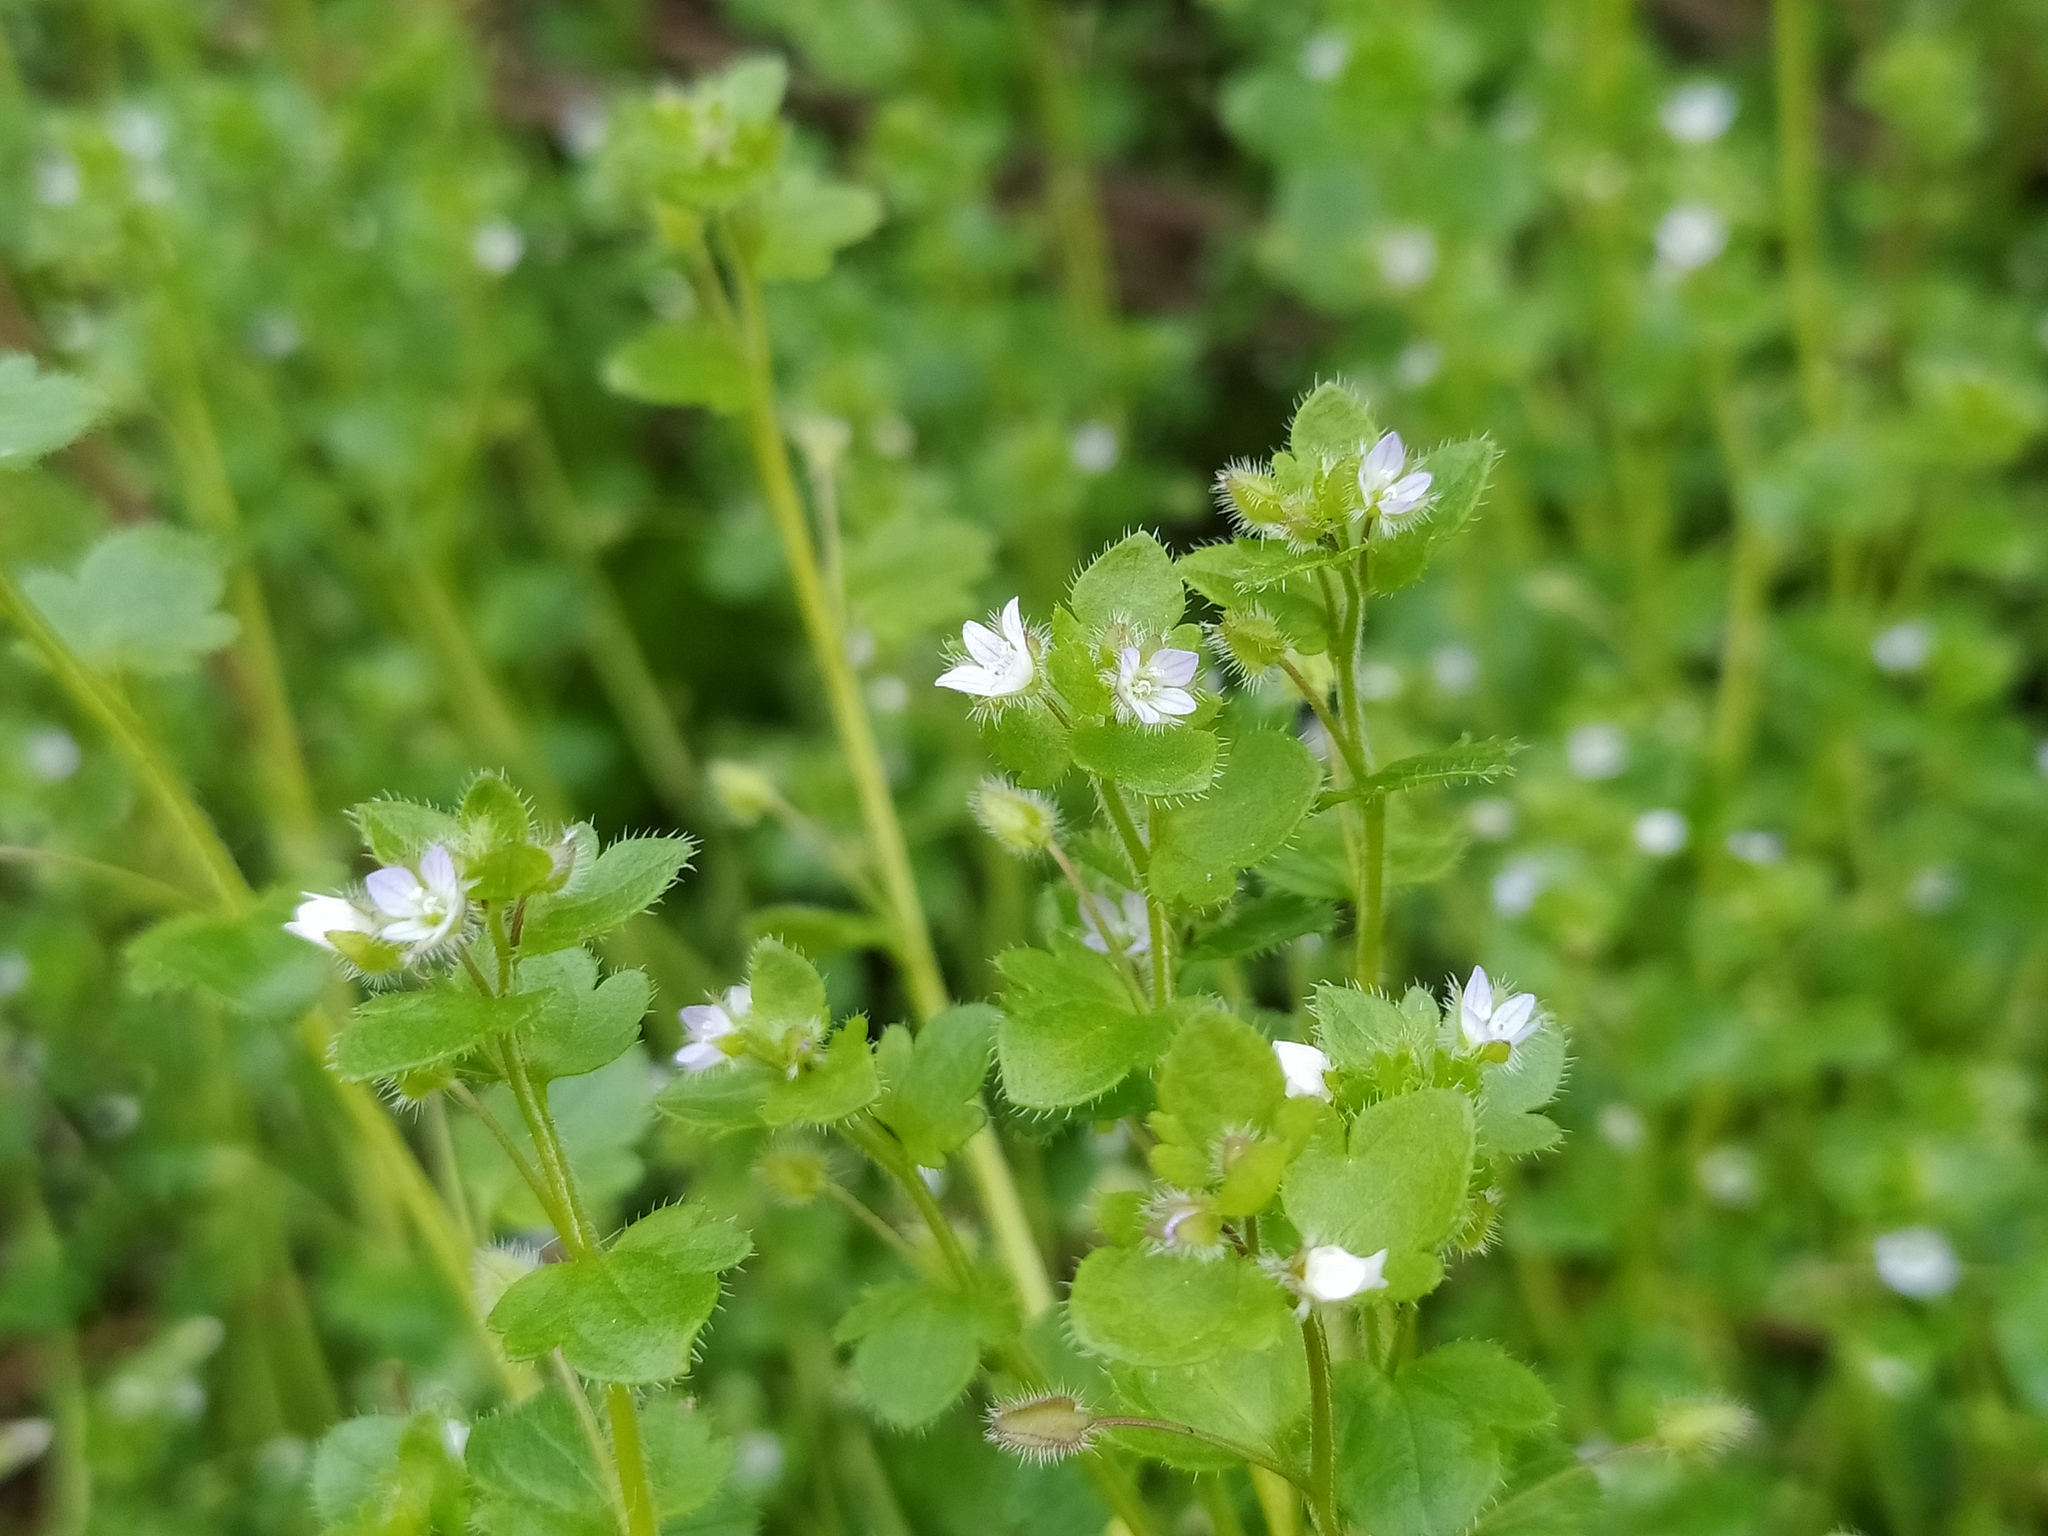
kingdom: Plantae
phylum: Tracheophyta
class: Magnoliopsida
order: Lamiales
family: Plantaginaceae
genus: Veronica
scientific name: Veronica sublobata
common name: False ivy-leaved speedwell
